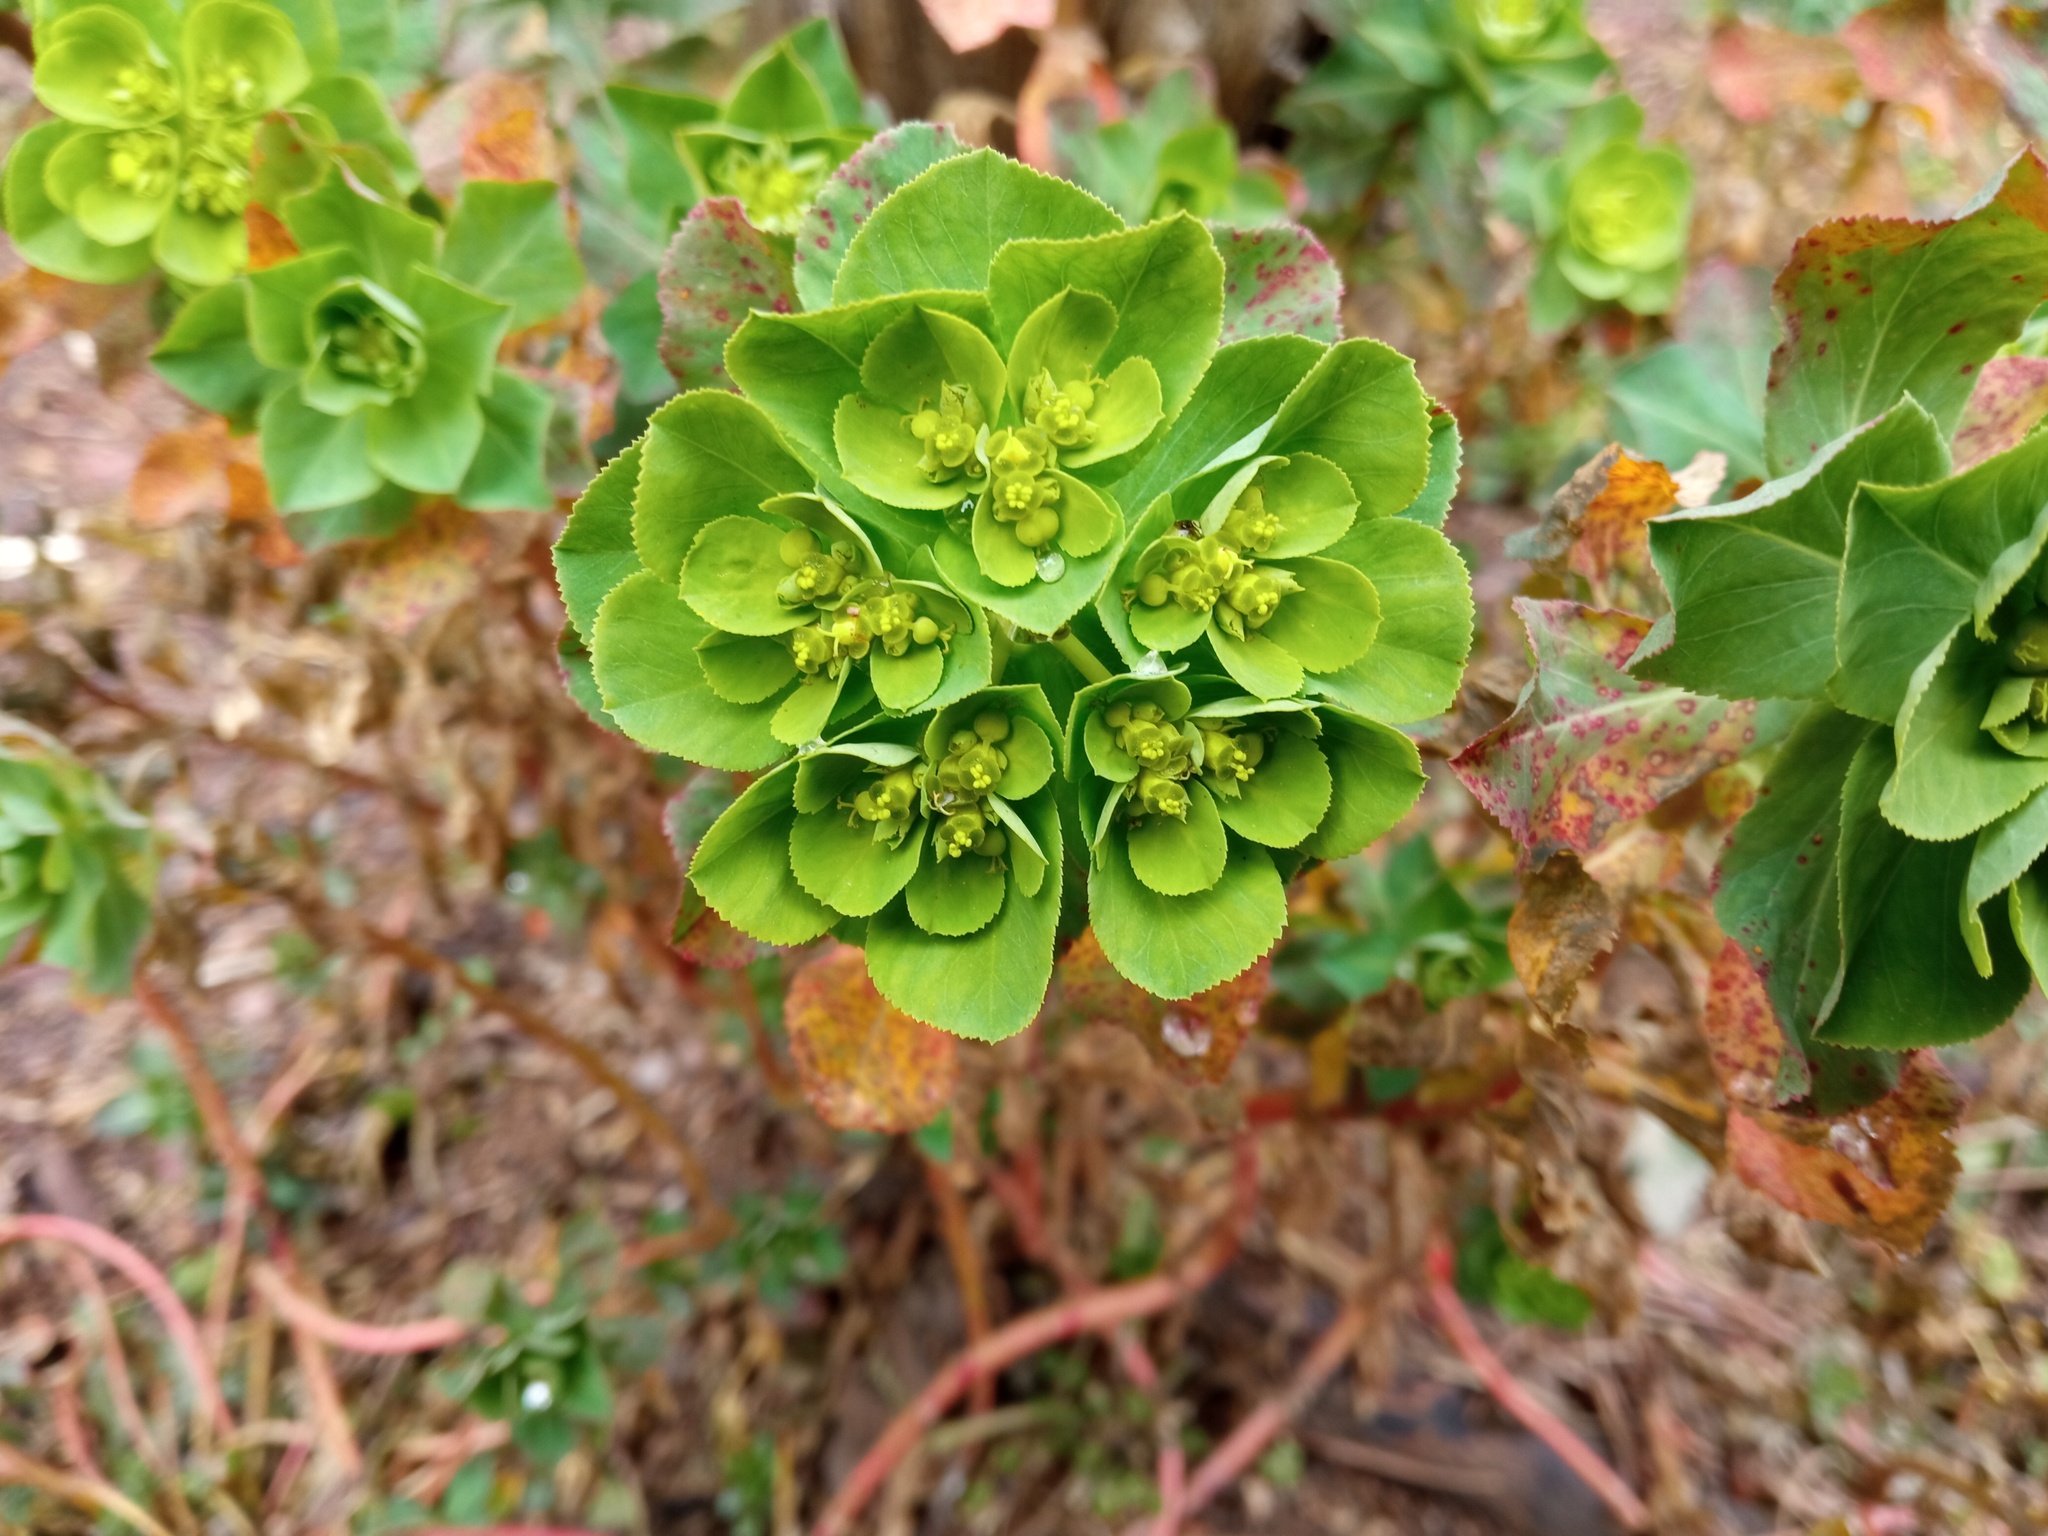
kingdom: Plantae
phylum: Tracheophyta
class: Magnoliopsida
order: Malpighiales
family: Euphorbiaceae
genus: Euphorbia
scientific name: Euphorbia helioscopia
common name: Sun spurge
